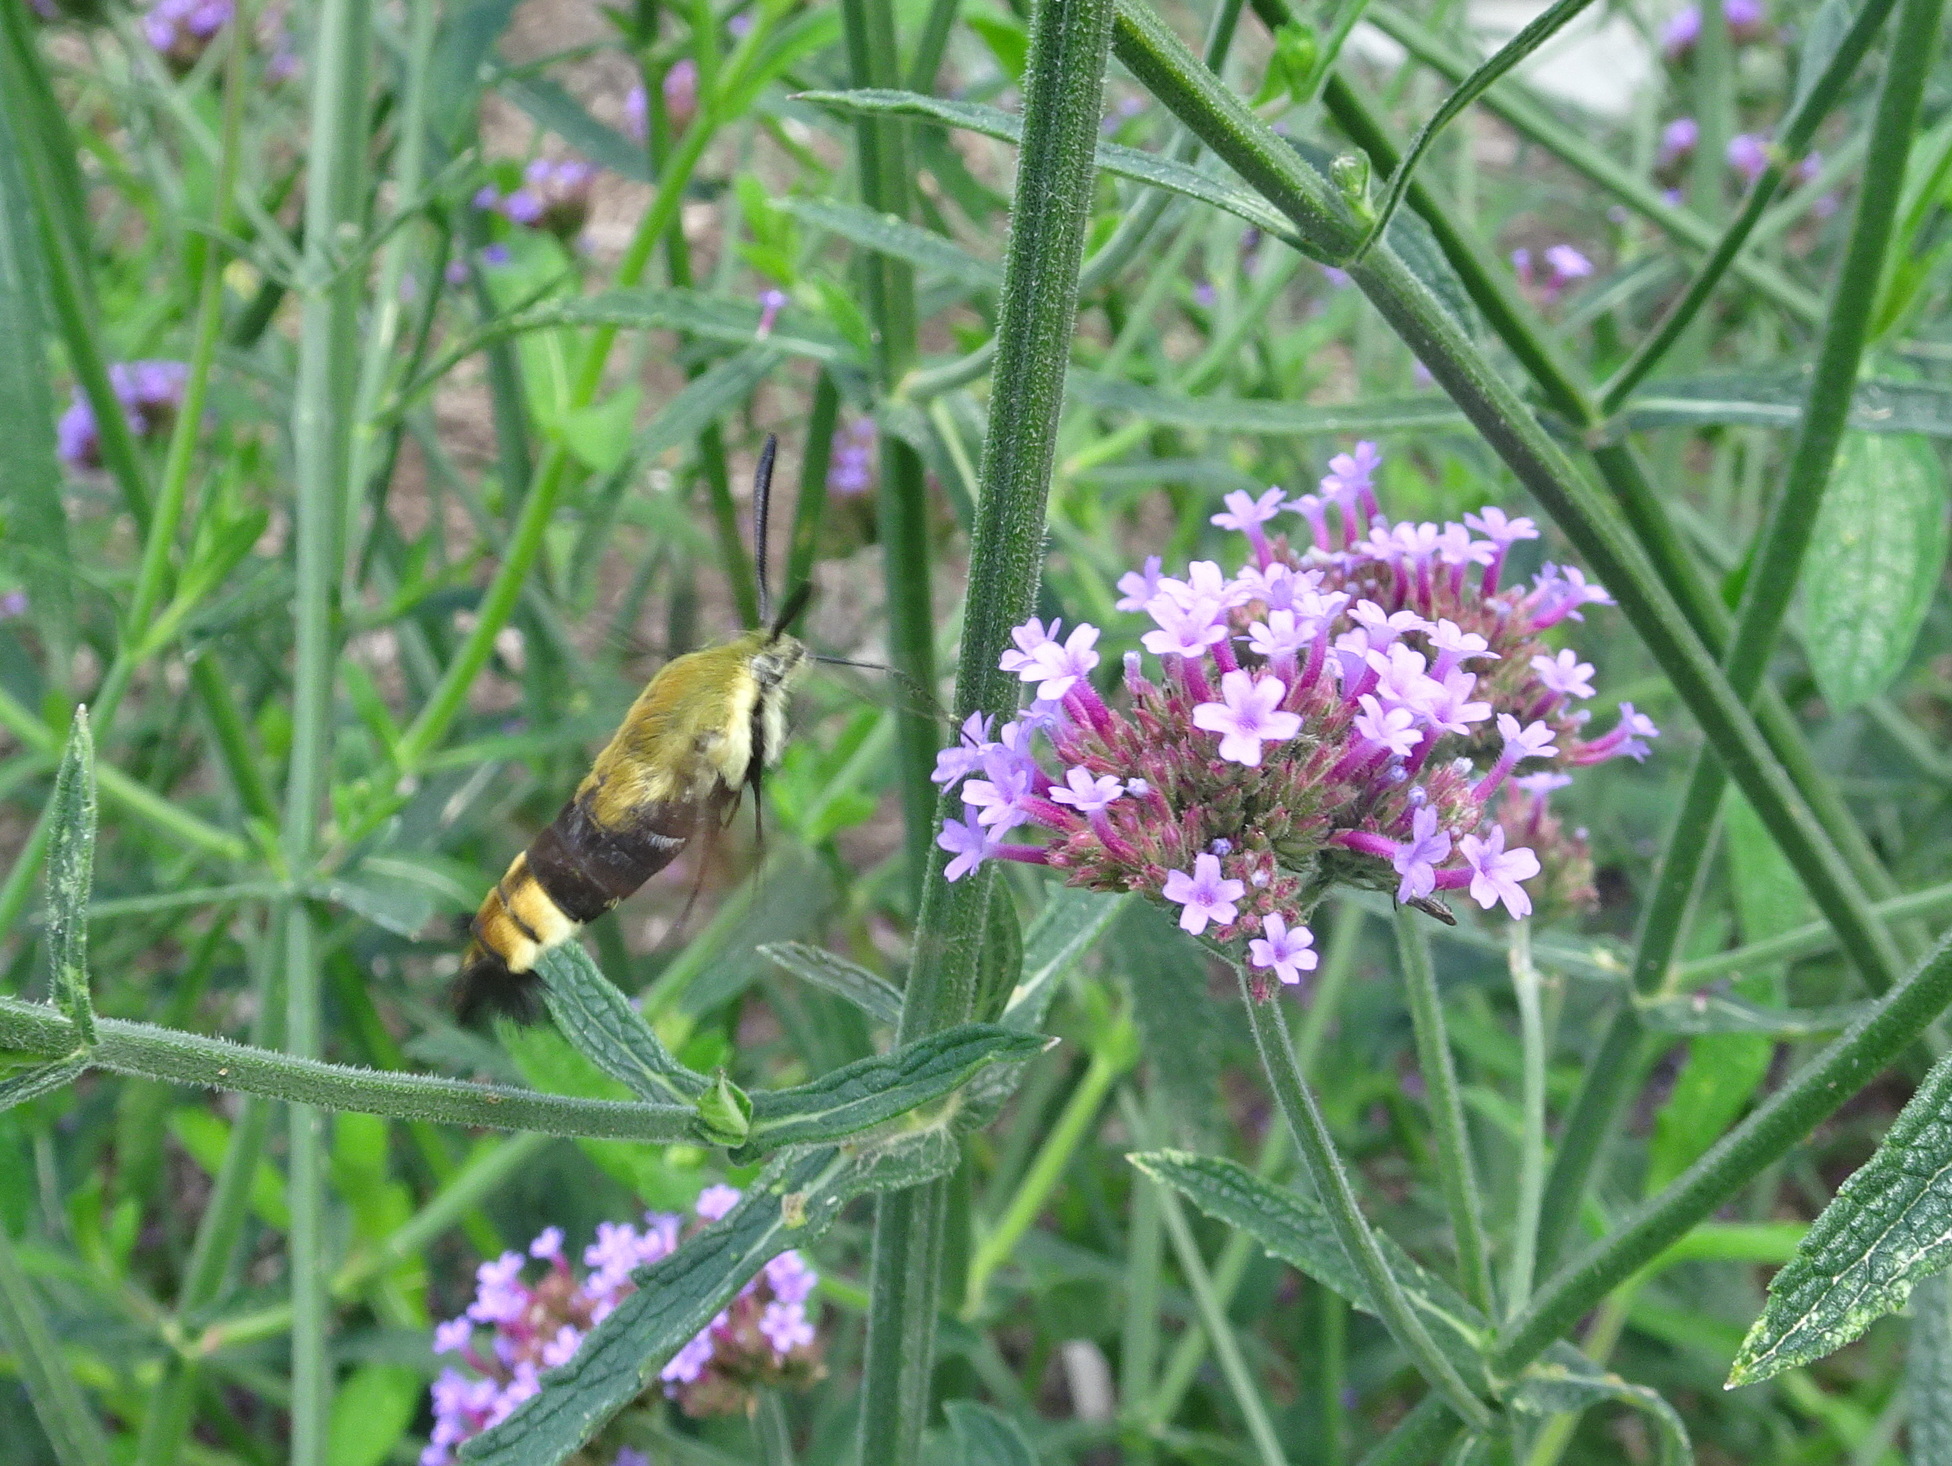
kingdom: Animalia
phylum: Arthropoda
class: Insecta
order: Lepidoptera
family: Sphingidae
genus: Hemaris
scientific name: Hemaris diffinis
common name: Bumblebee moth
